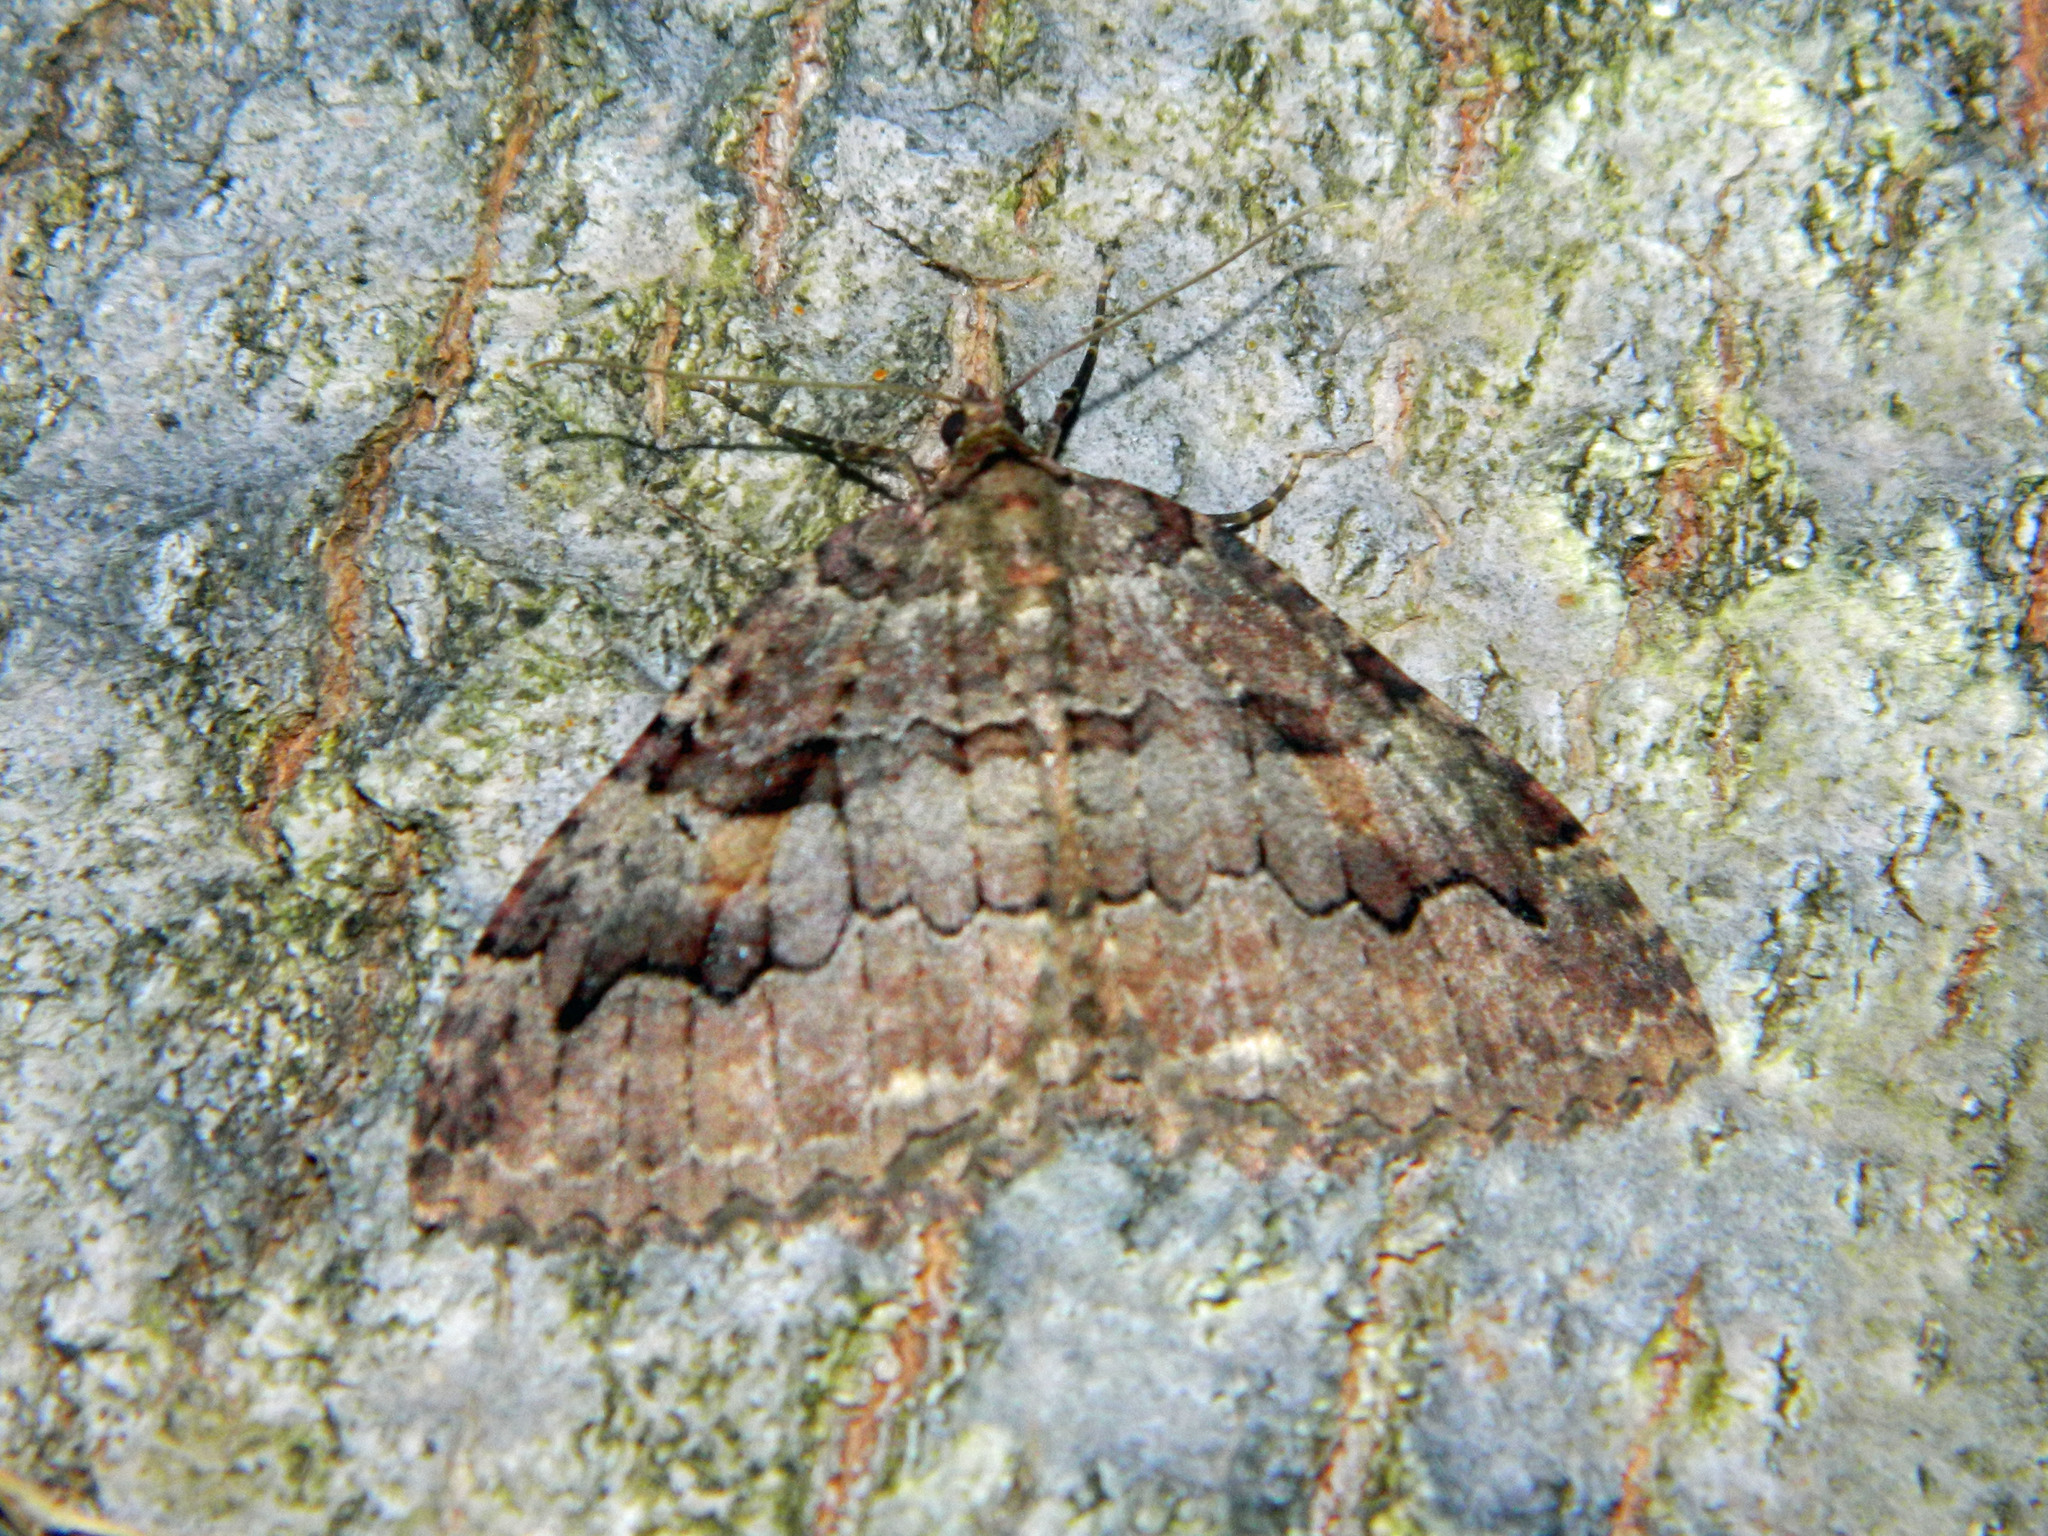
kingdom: Animalia
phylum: Arthropoda
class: Insecta
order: Lepidoptera
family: Geometridae
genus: Triphosa
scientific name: Triphosa haesitata
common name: Tissue moth
